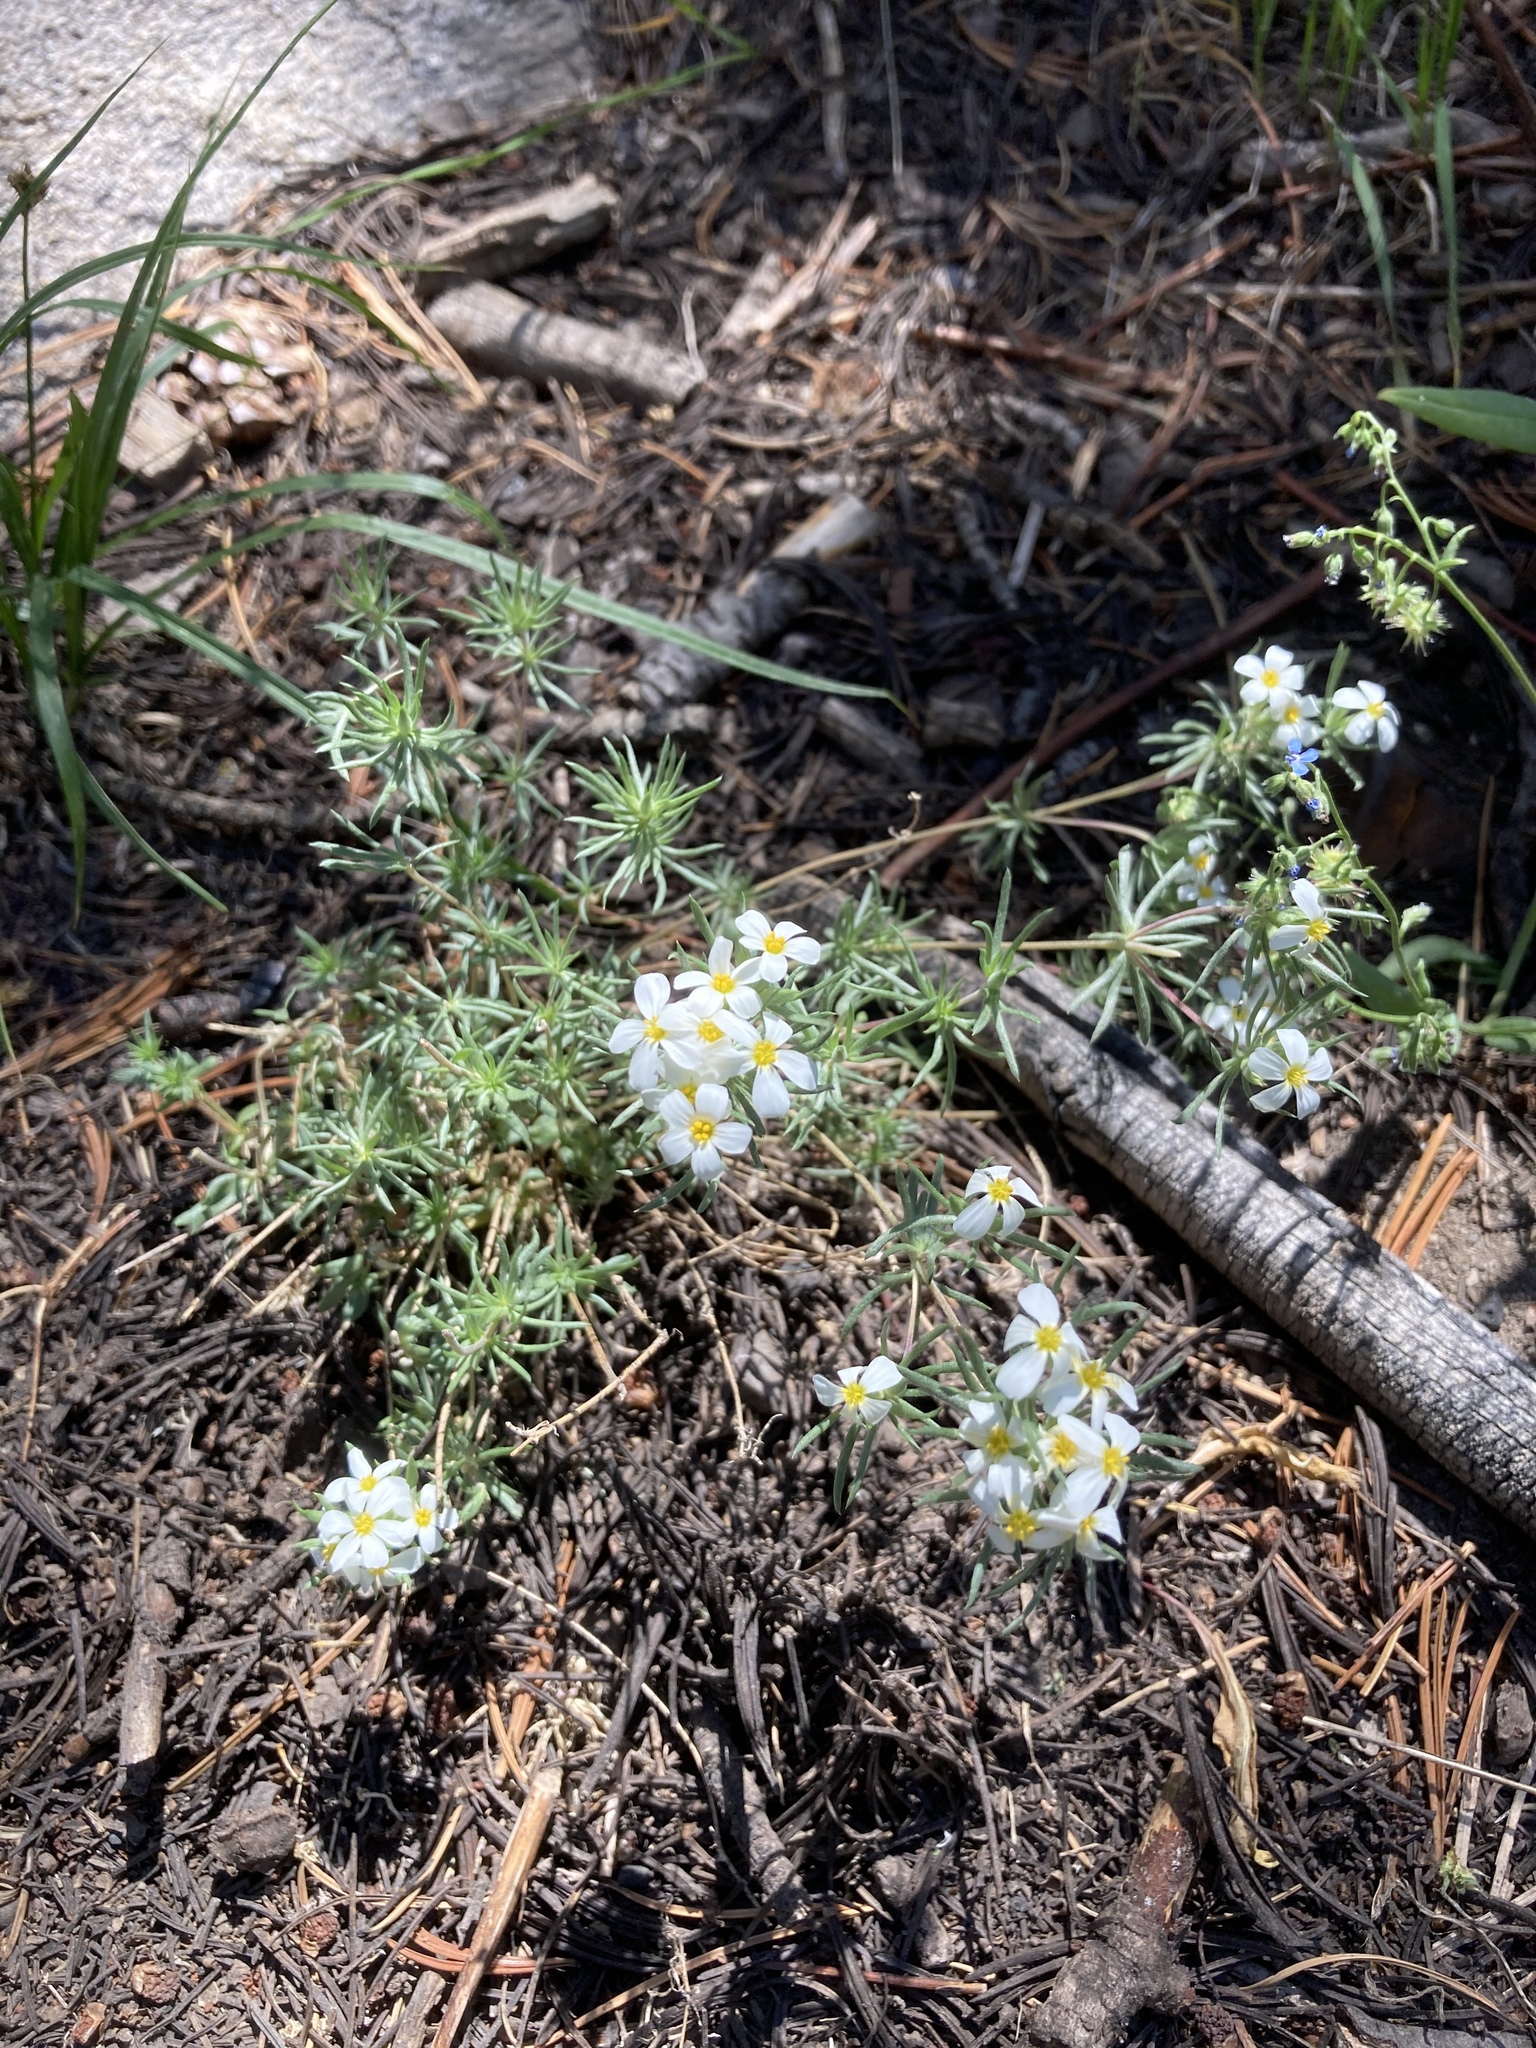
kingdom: Plantae
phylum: Tracheophyta
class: Magnoliopsida
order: Ericales
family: Polemoniaceae
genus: Leptosiphon
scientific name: Leptosiphon nuttallii
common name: Nuttall's linanthus
